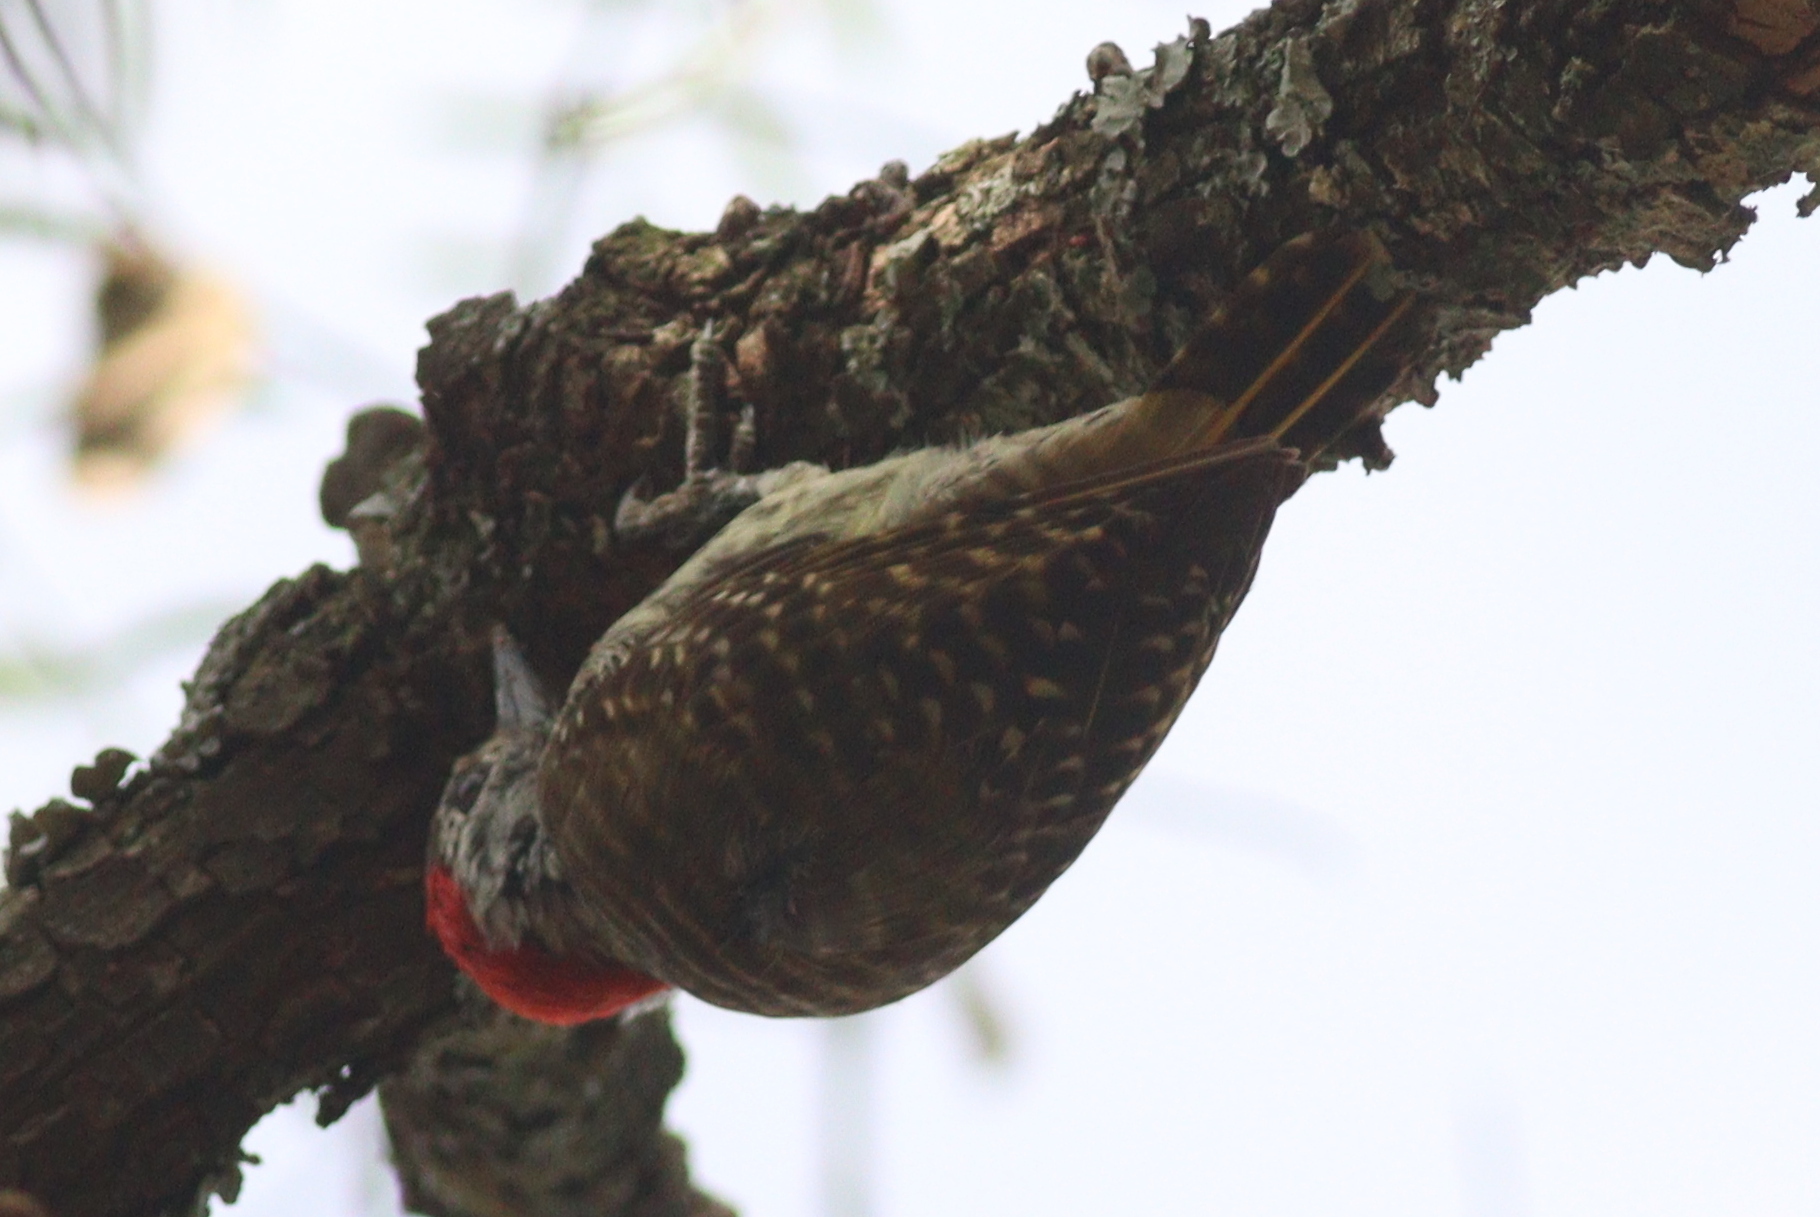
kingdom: Animalia
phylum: Chordata
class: Aves
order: Piciformes
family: Picidae
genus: Dendropicos
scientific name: Dendropicos fuscescens
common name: Cardinal woodpecker
